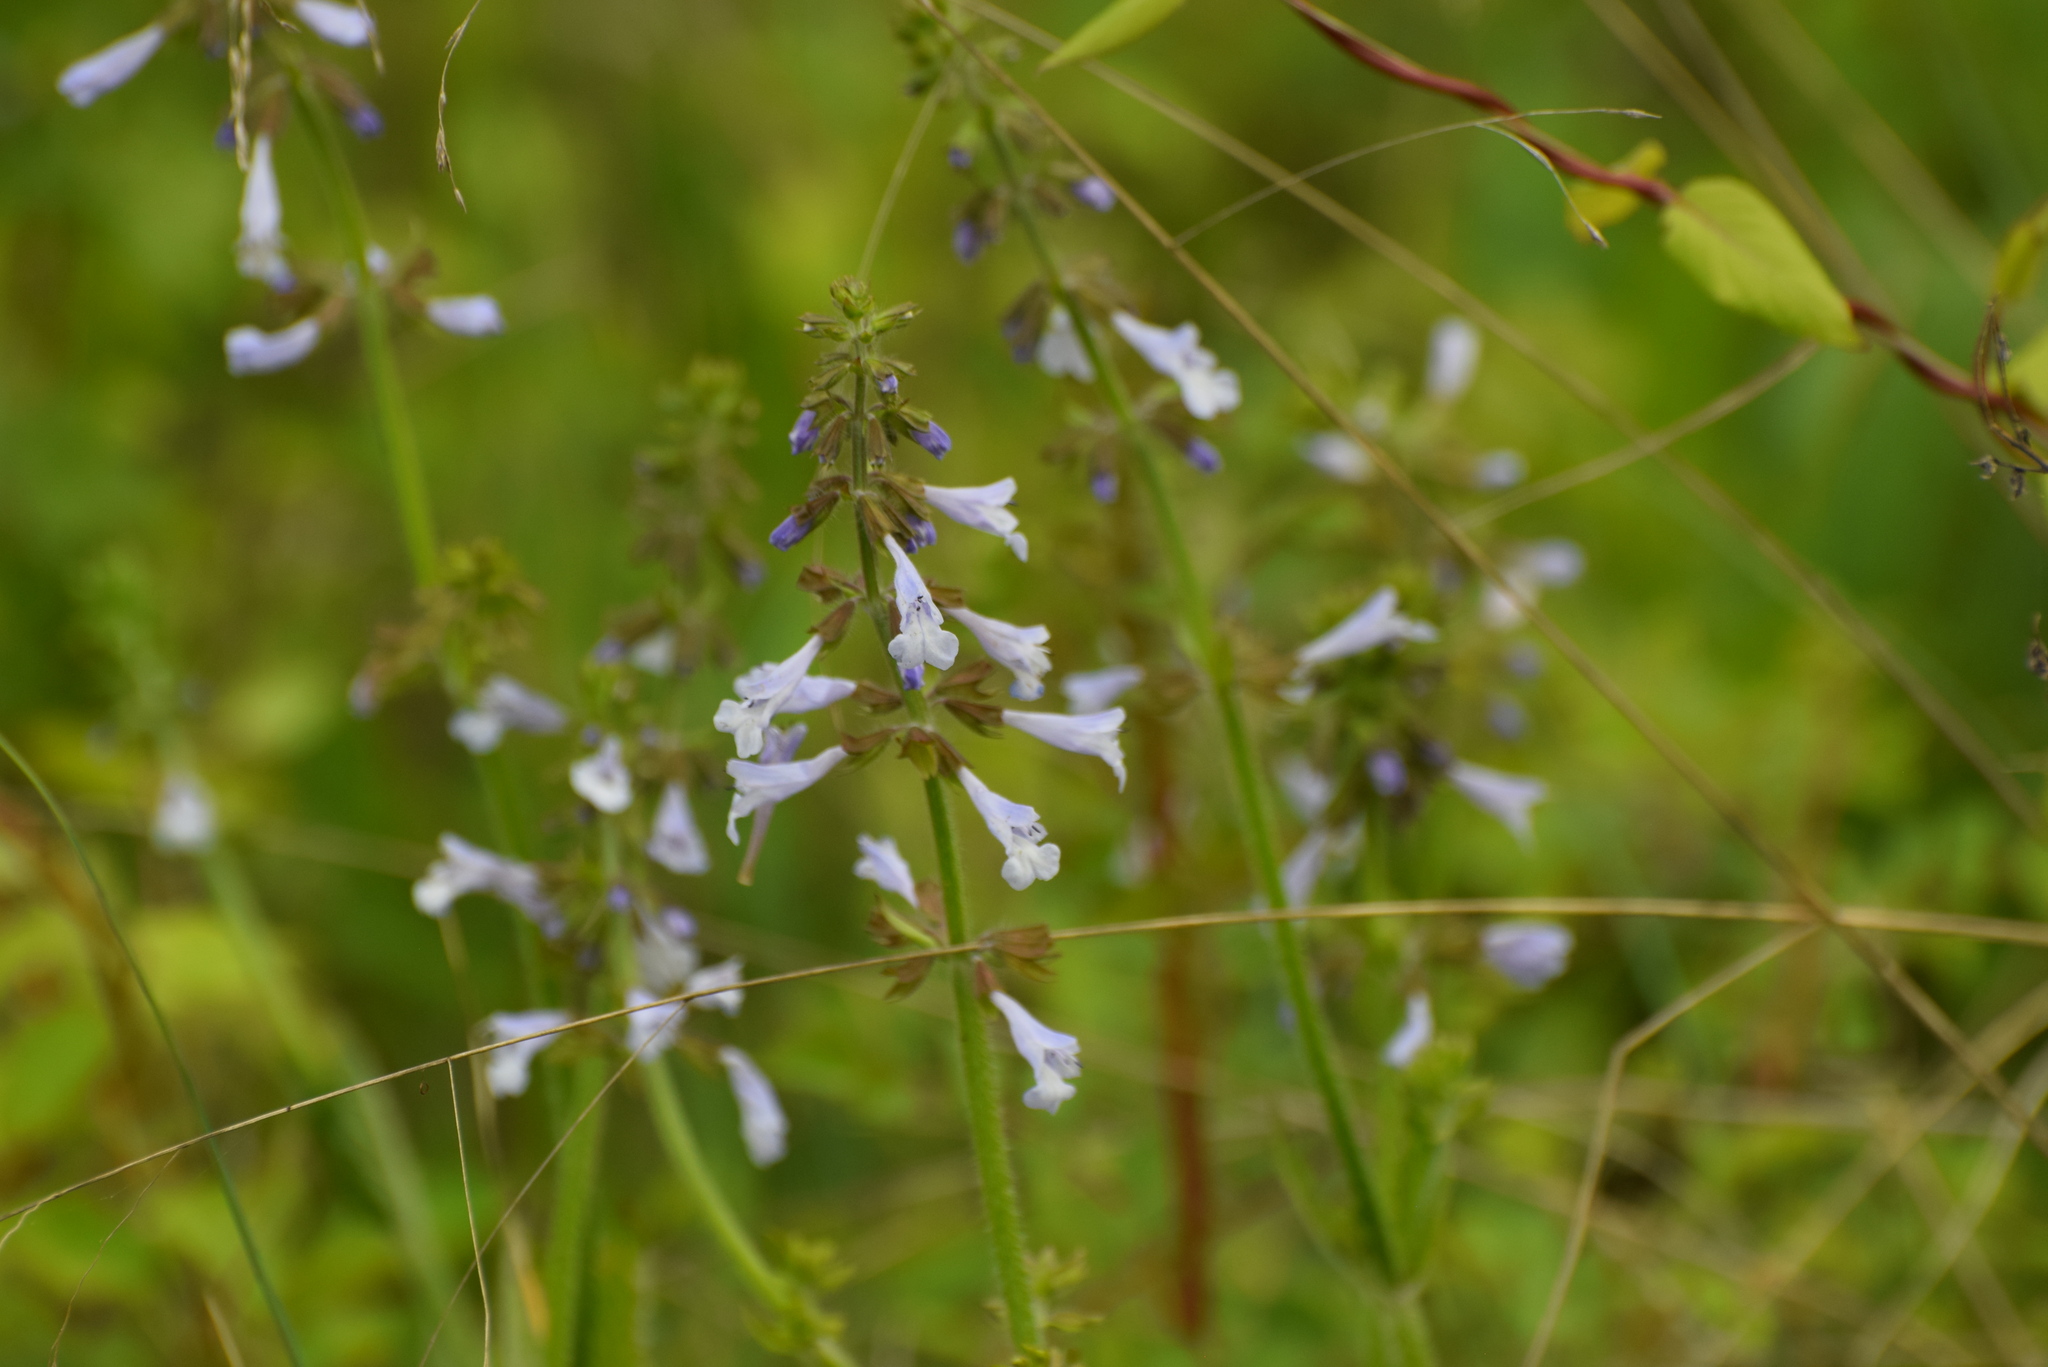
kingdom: Plantae
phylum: Tracheophyta
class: Magnoliopsida
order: Lamiales
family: Lamiaceae
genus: Salvia
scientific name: Salvia lyrata
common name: Cancerweed
